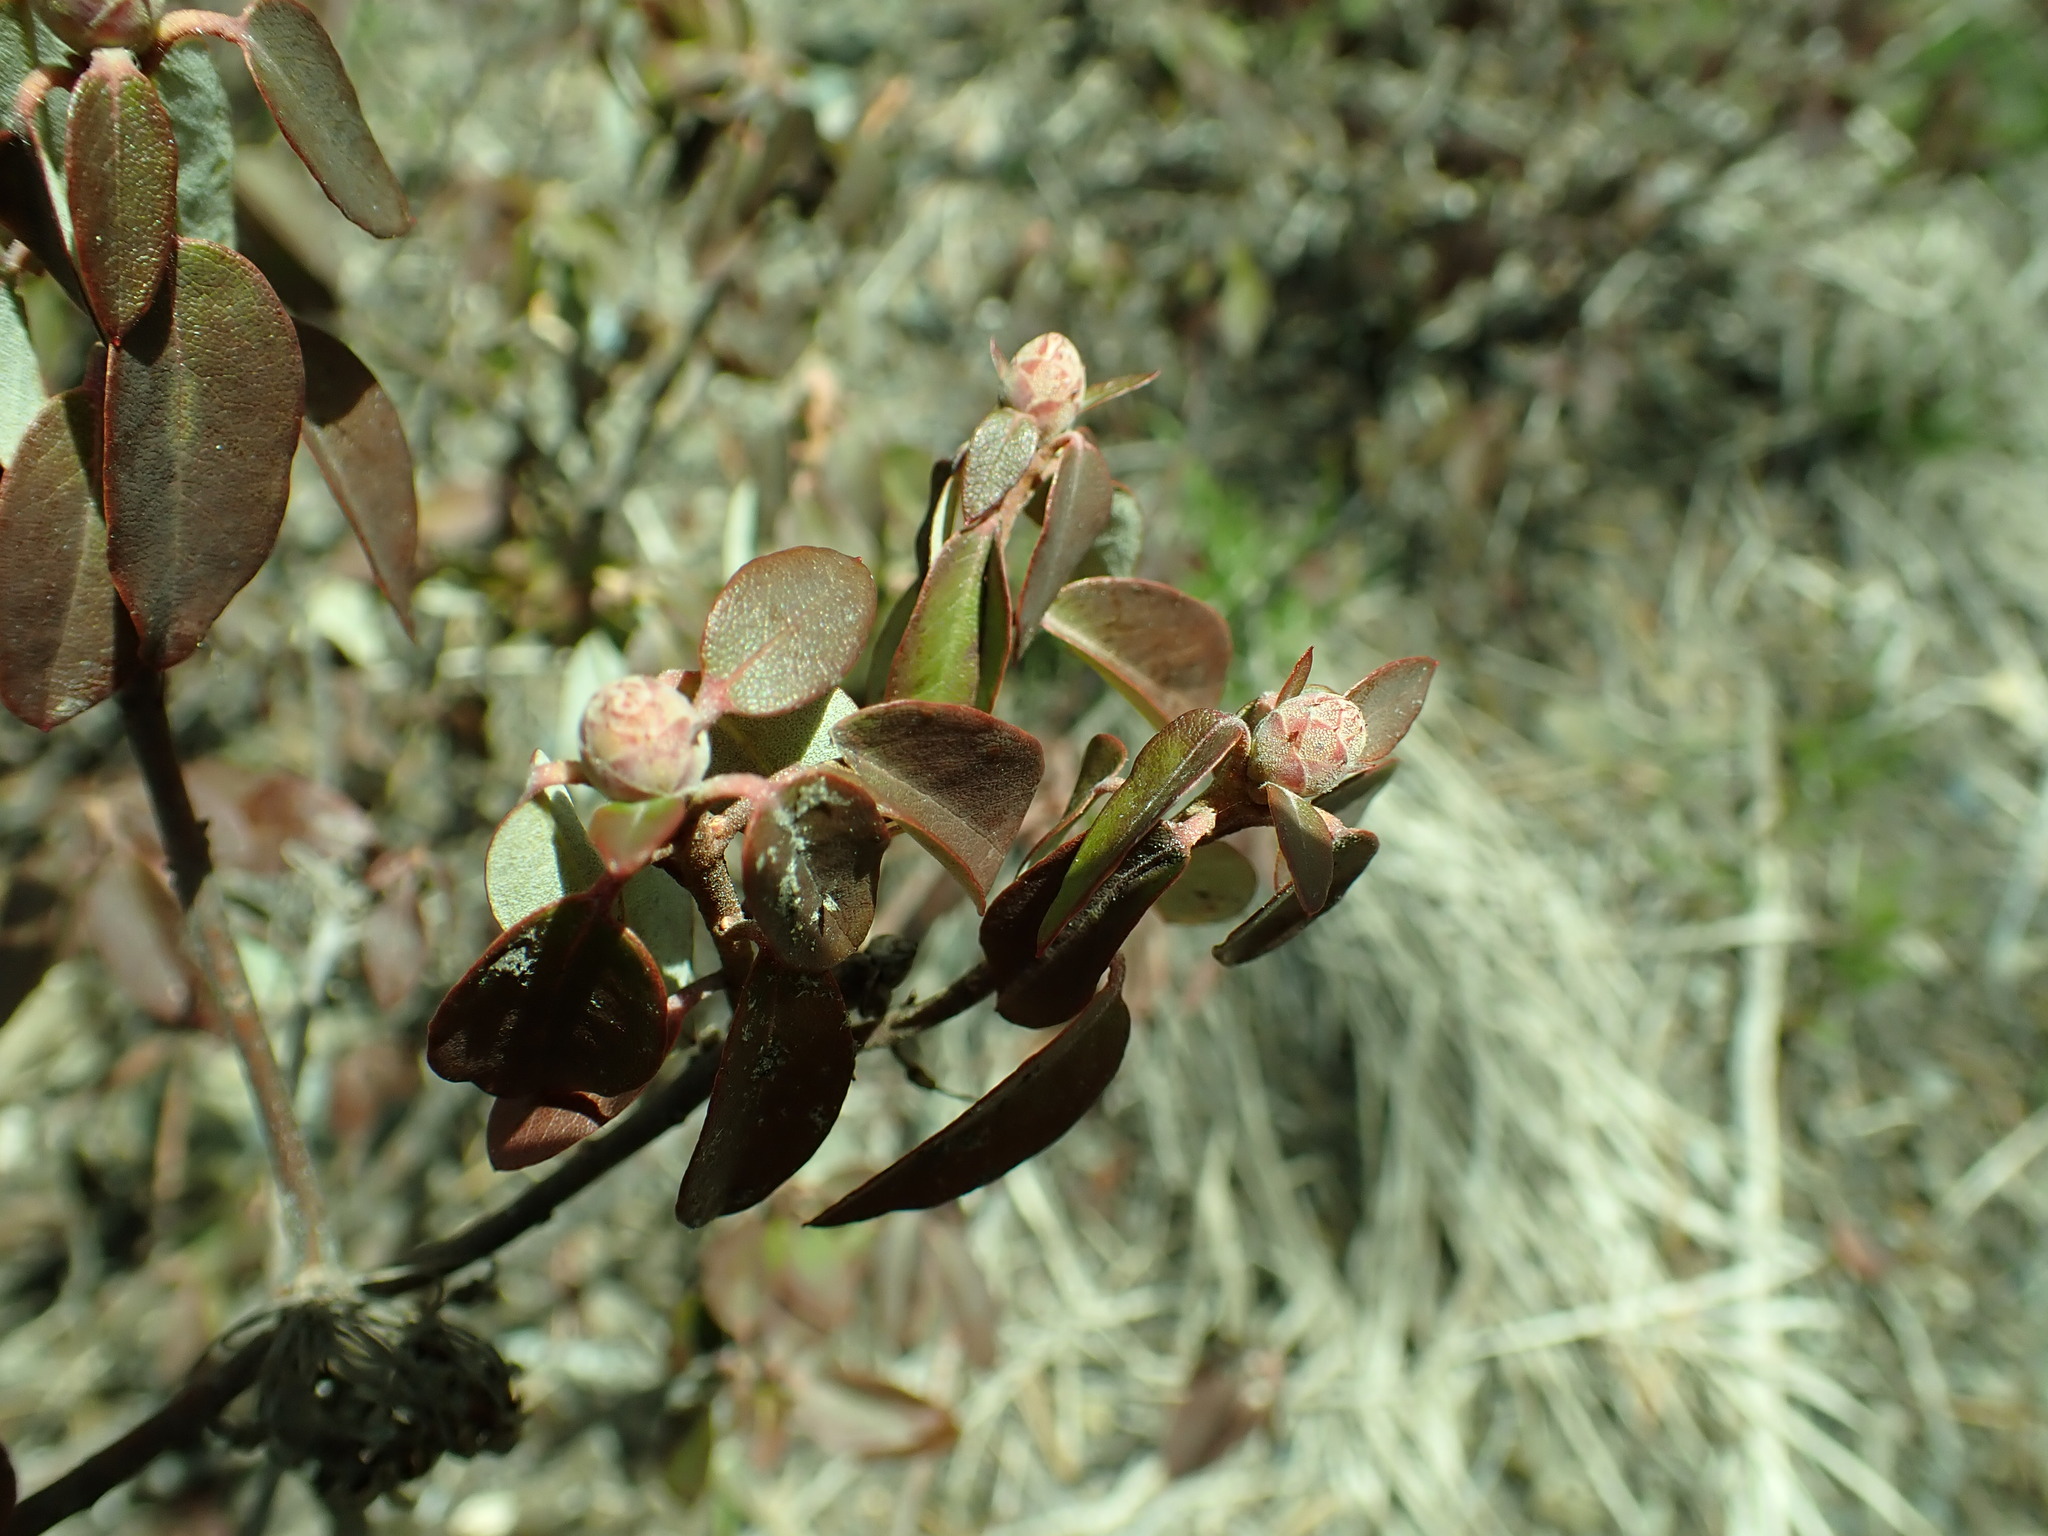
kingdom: Plantae
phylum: Tracheophyta
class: Magnoliopsida
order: Ericales
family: Ericaceae
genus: Rhododendron
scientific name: Rhododendron columbianum
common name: Western labrador tea
